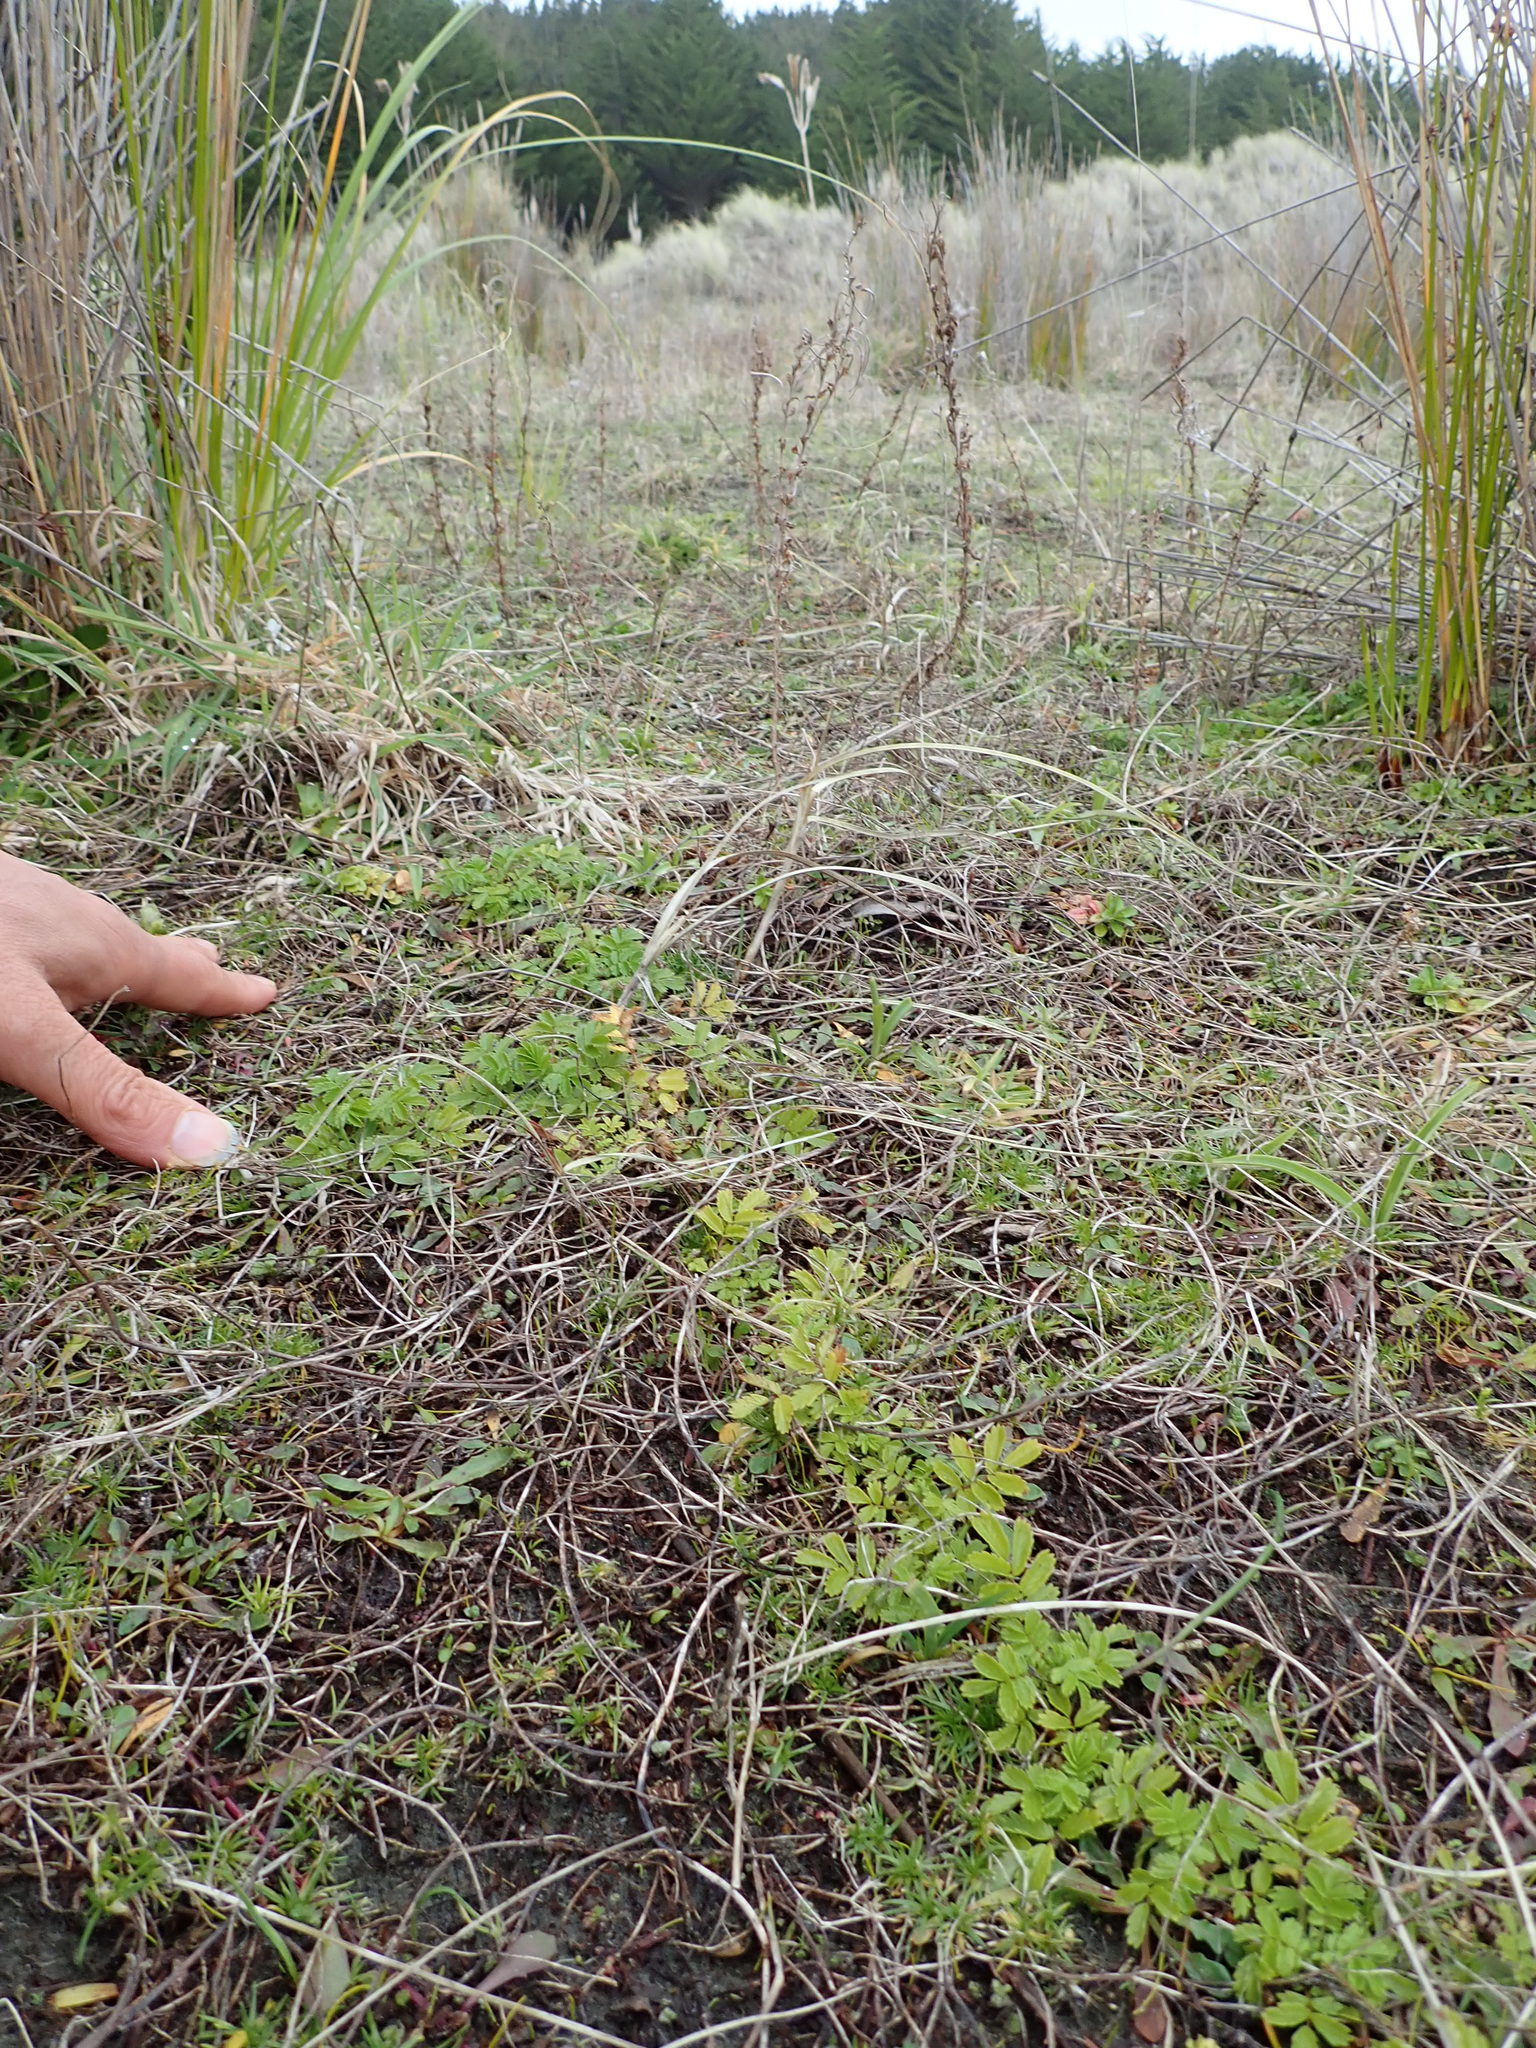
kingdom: Plantae
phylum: Tracheophyta
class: Magnoliopsida
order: Rosales
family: Rosaceae
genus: Acaena
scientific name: Acaena novae-zelandiae
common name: Pirri-pirri-bur
